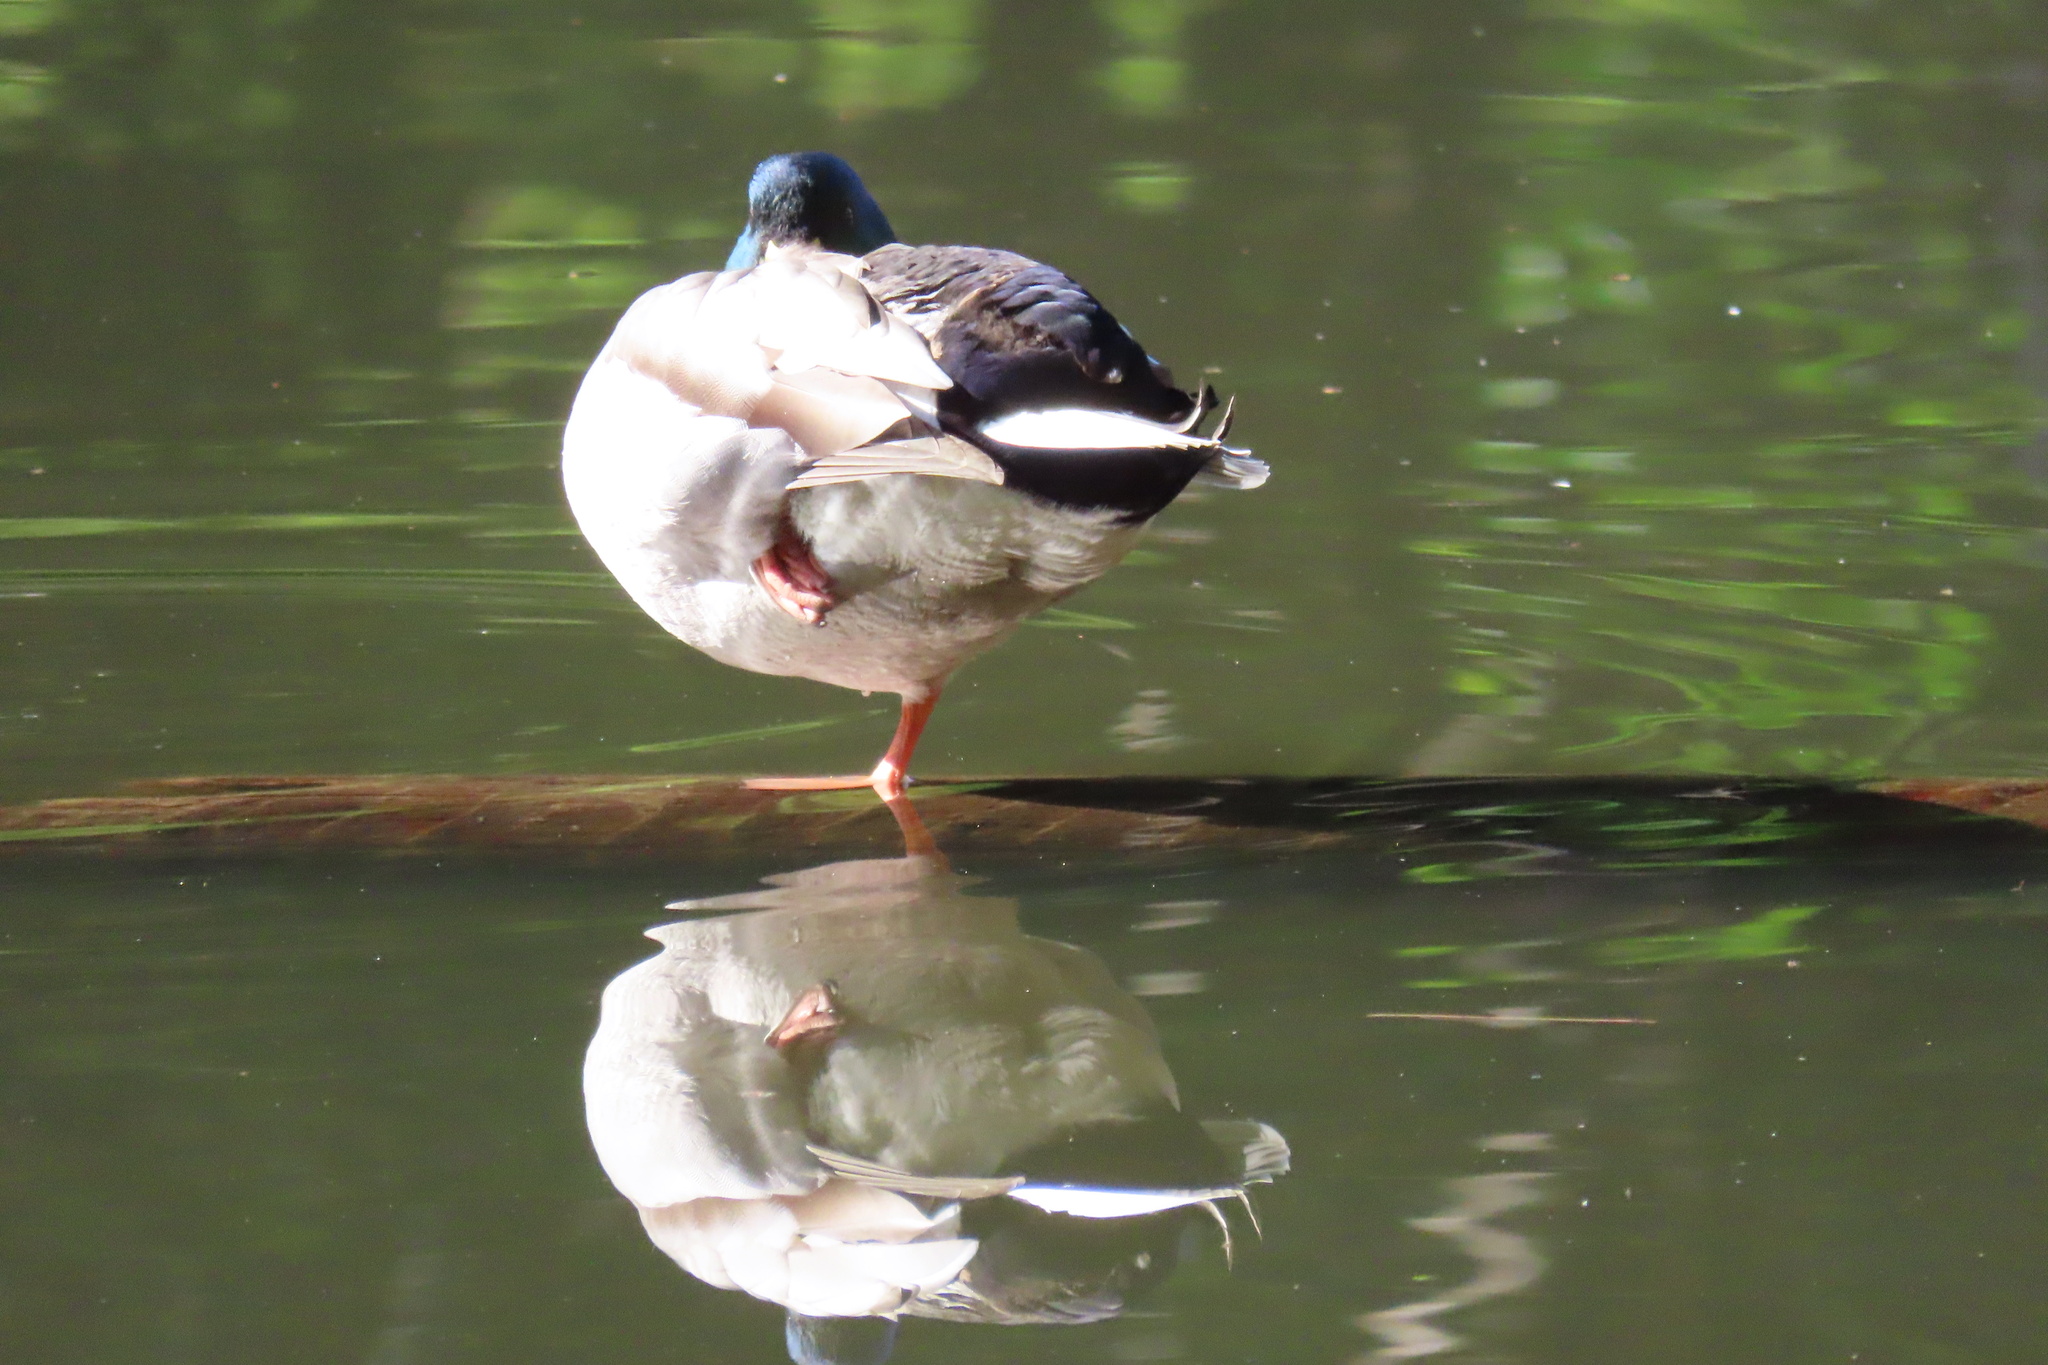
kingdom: Animalia
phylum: Chordata
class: Aves
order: Anseriformes
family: Anatidae
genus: Anas
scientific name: Anas platyrhynchos
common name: Mallard
